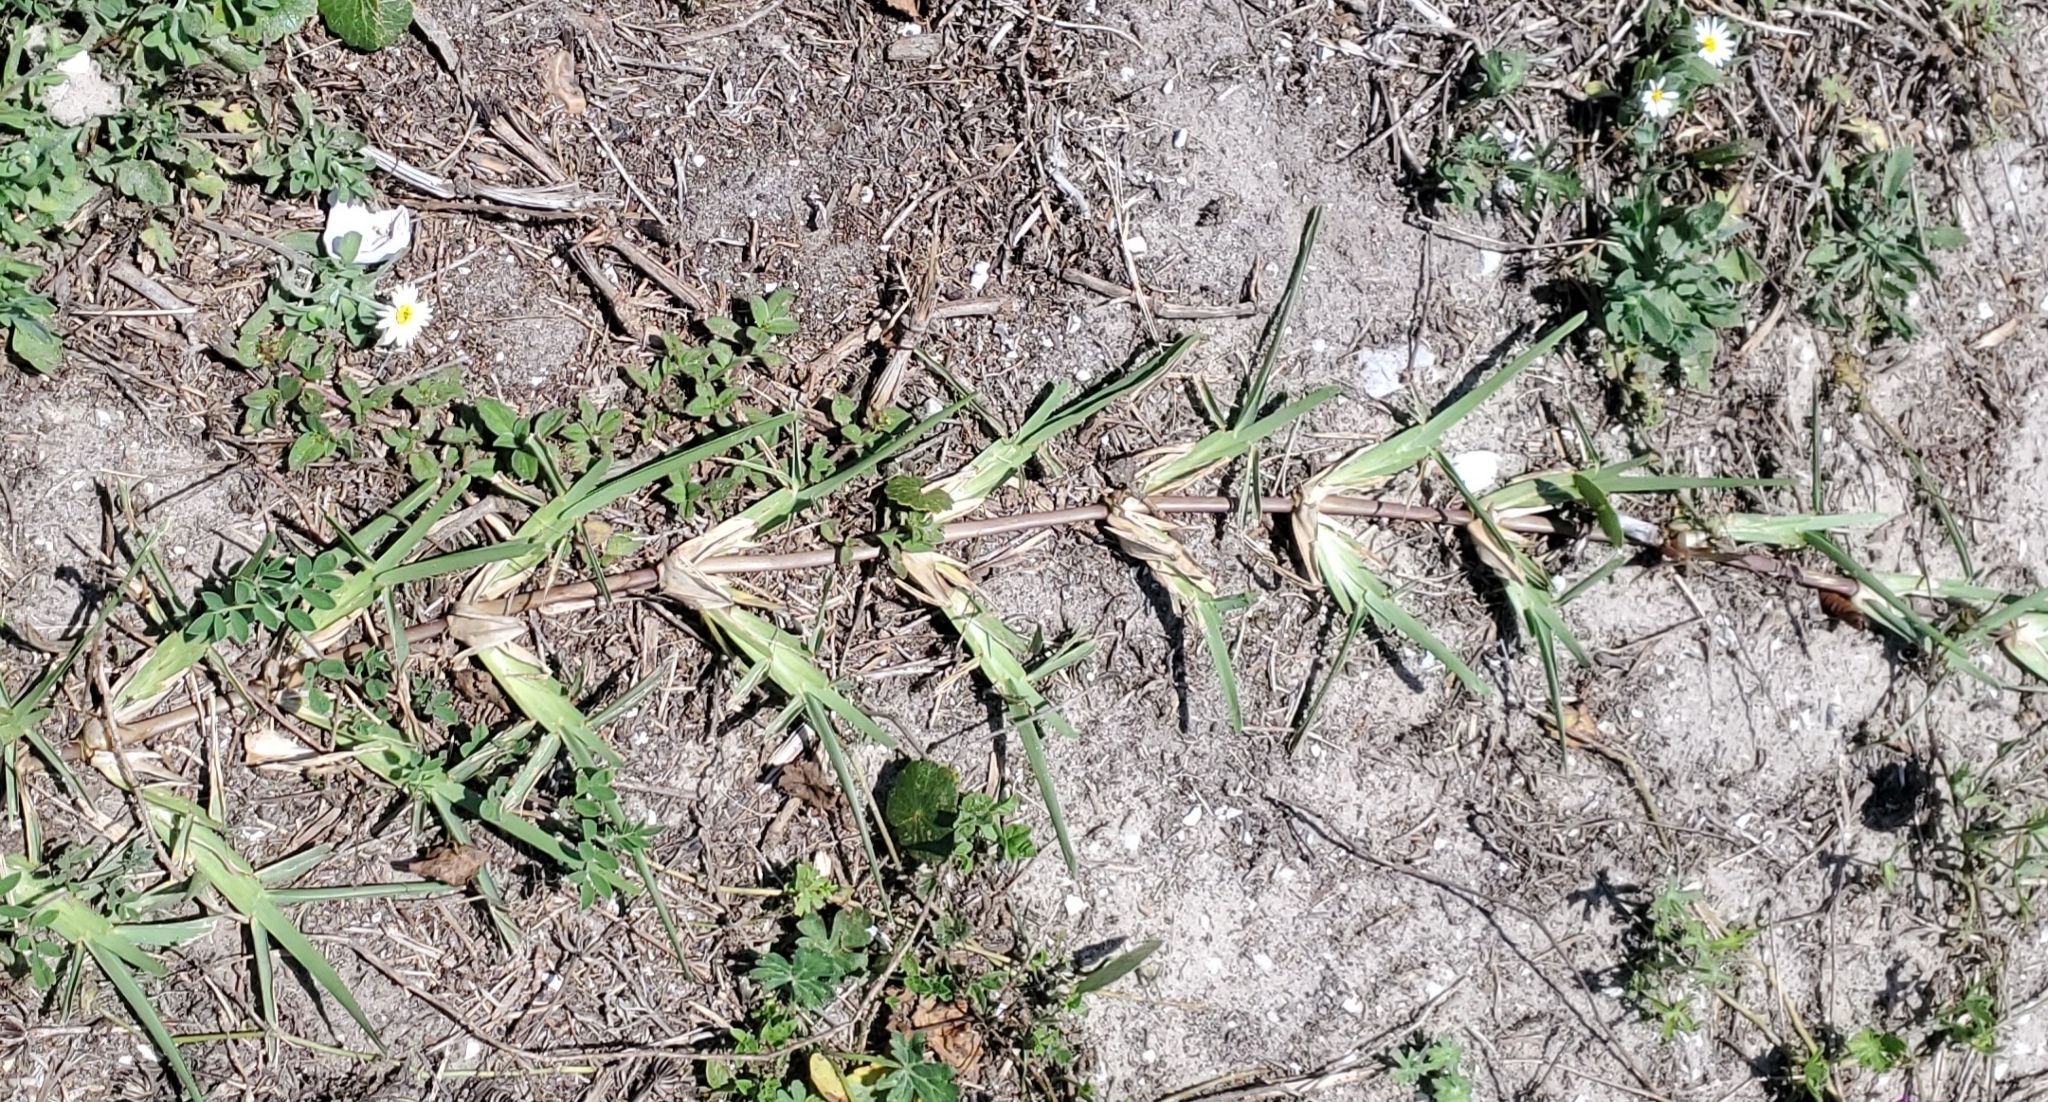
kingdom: Plantae
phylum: Tracheophyta
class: Liliopsida
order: Poales
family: Poaceae
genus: Stenotaphrum
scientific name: Stenotaphrum secundatum
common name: St. augustine grass
